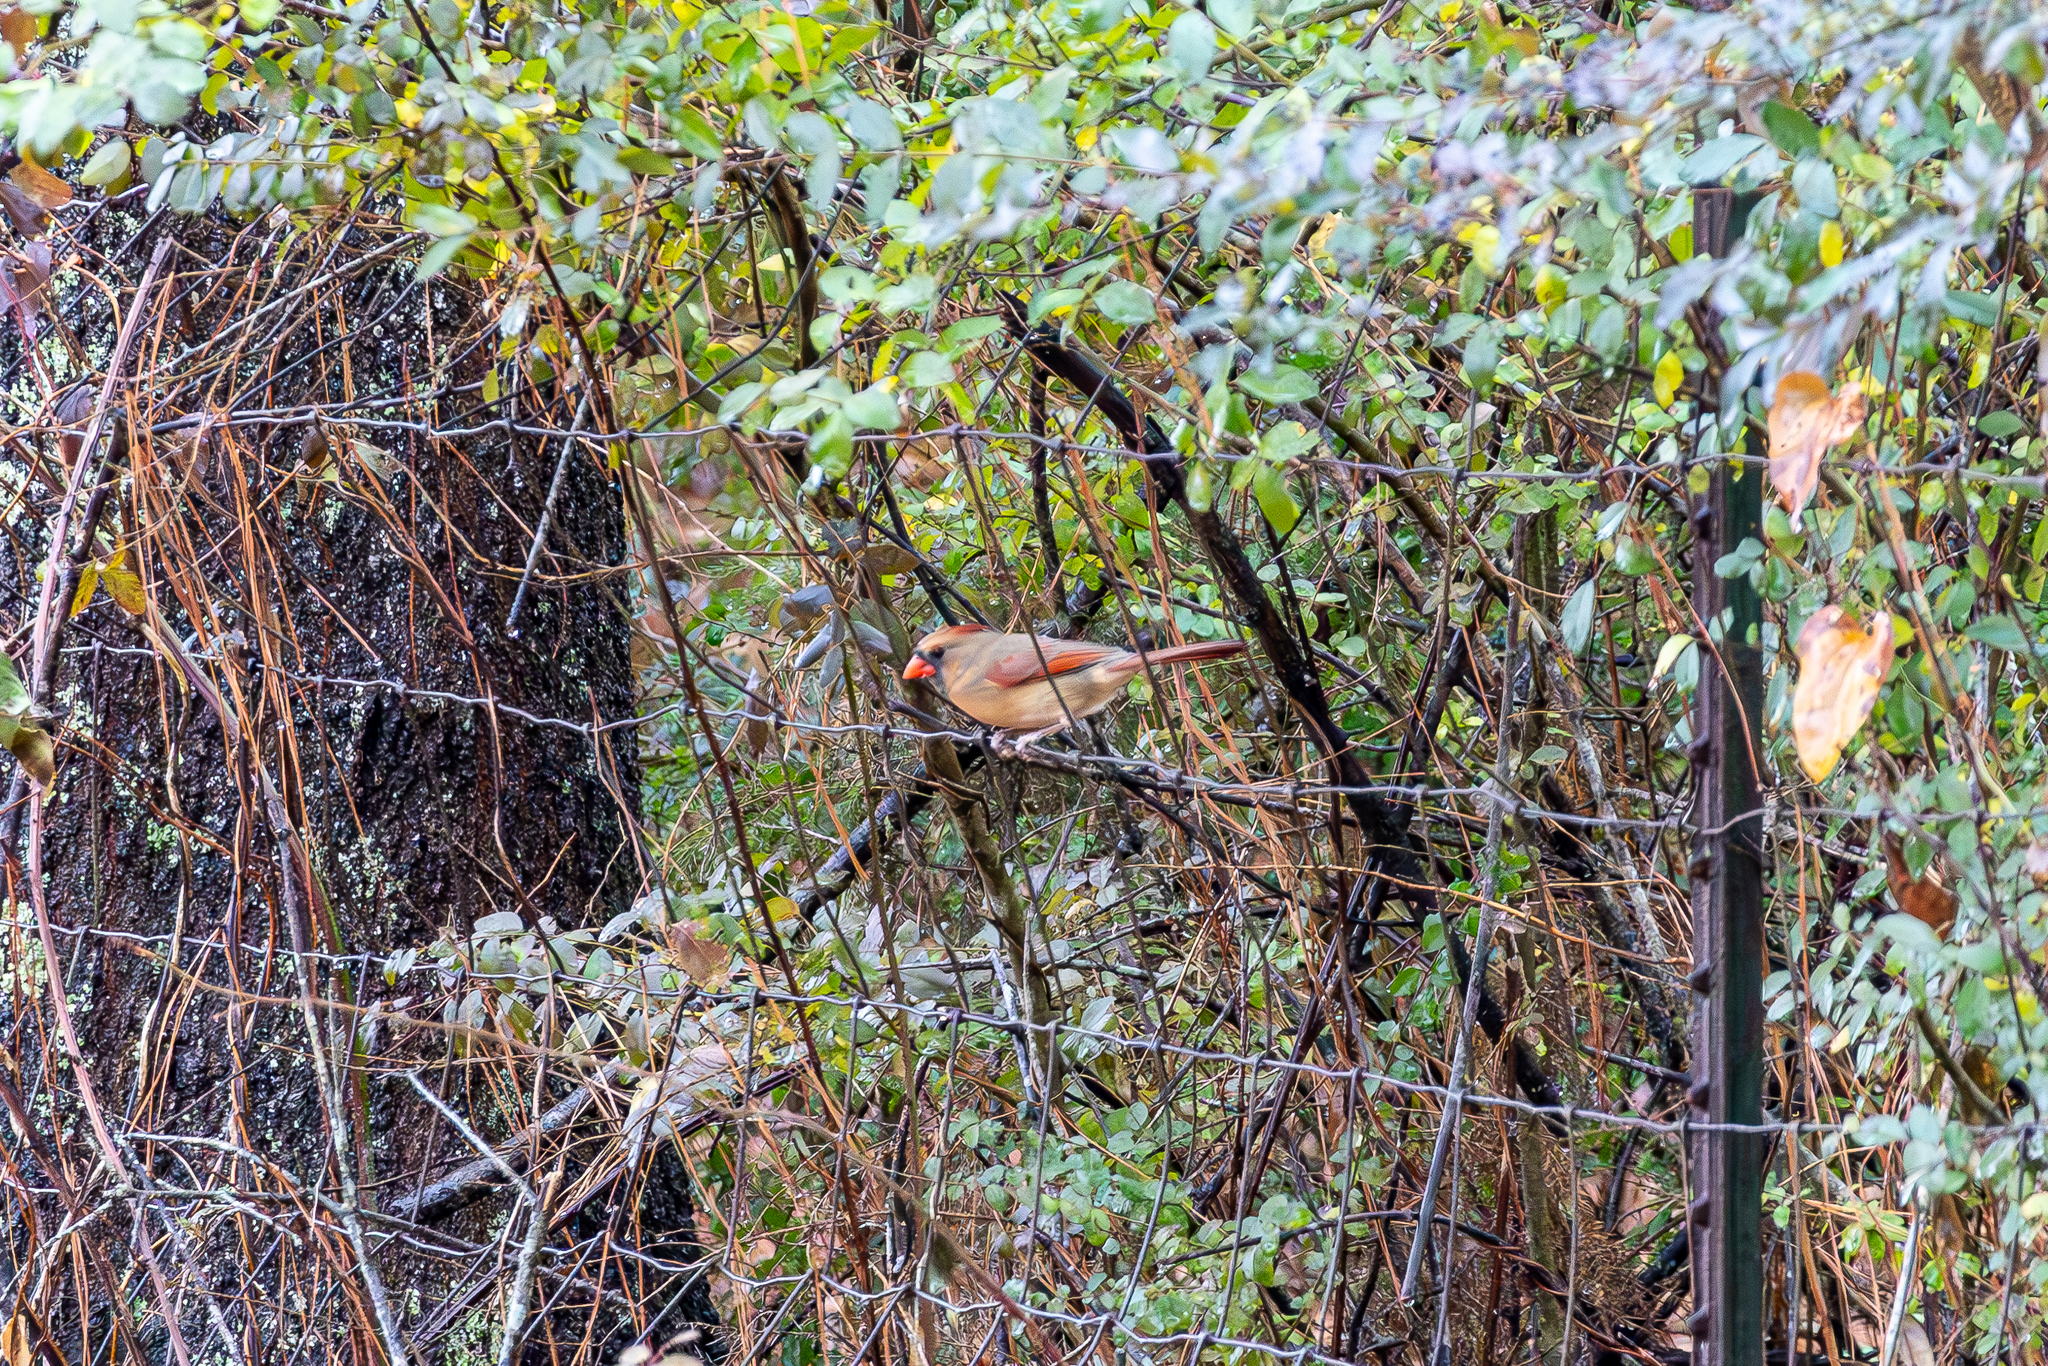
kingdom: Animalia
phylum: Chordata
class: Aves
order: Passeriformes
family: Cardinalidae
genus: Cardinalis
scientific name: Cardinalis cardinalis
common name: Northern cardinal
